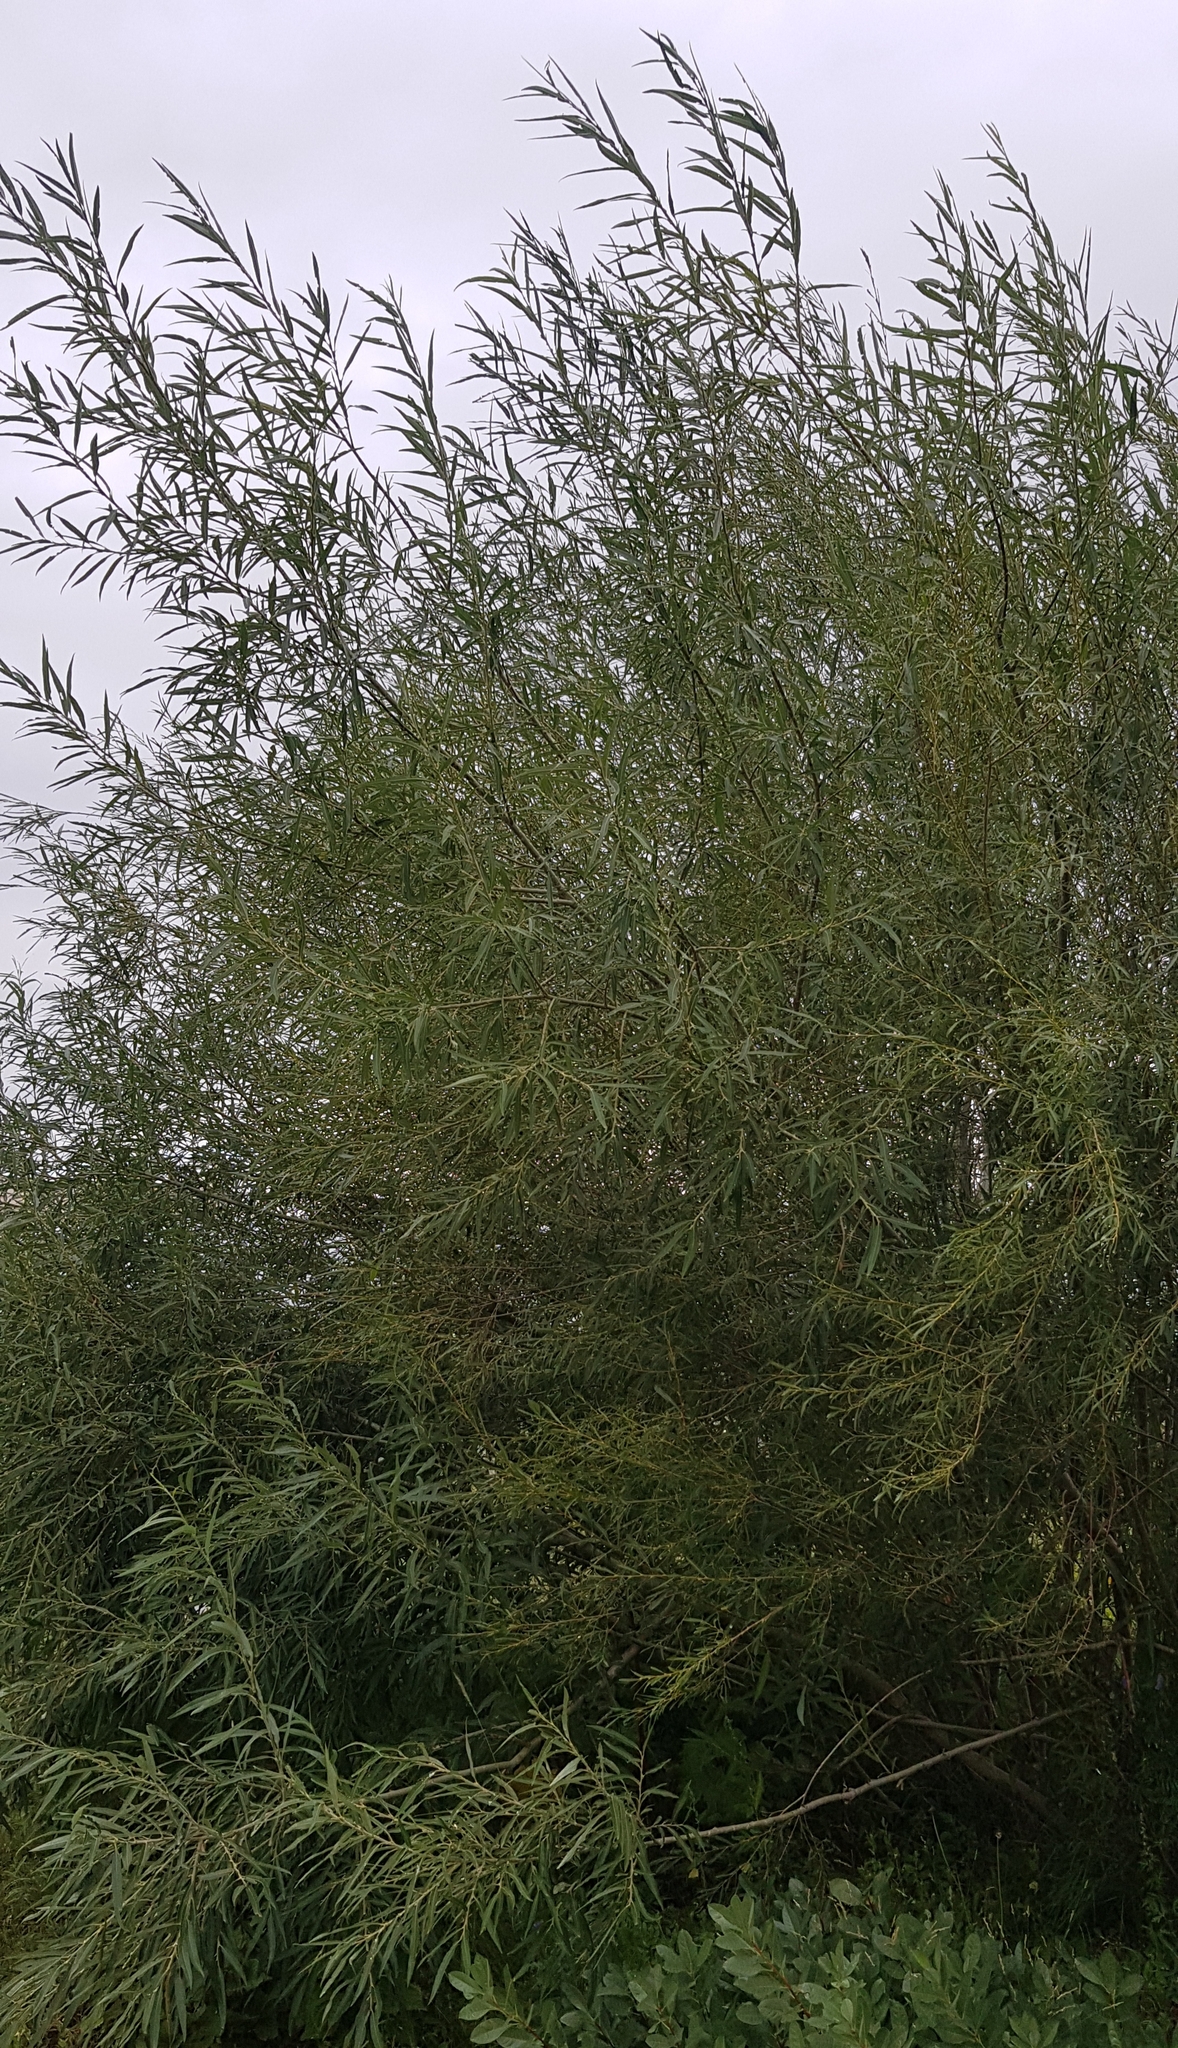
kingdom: Plantae
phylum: Tracheophyta
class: Magnoliopsida
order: Malpighiales
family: Salicaceae
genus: Salix
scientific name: Salix viminalis
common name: Osier
